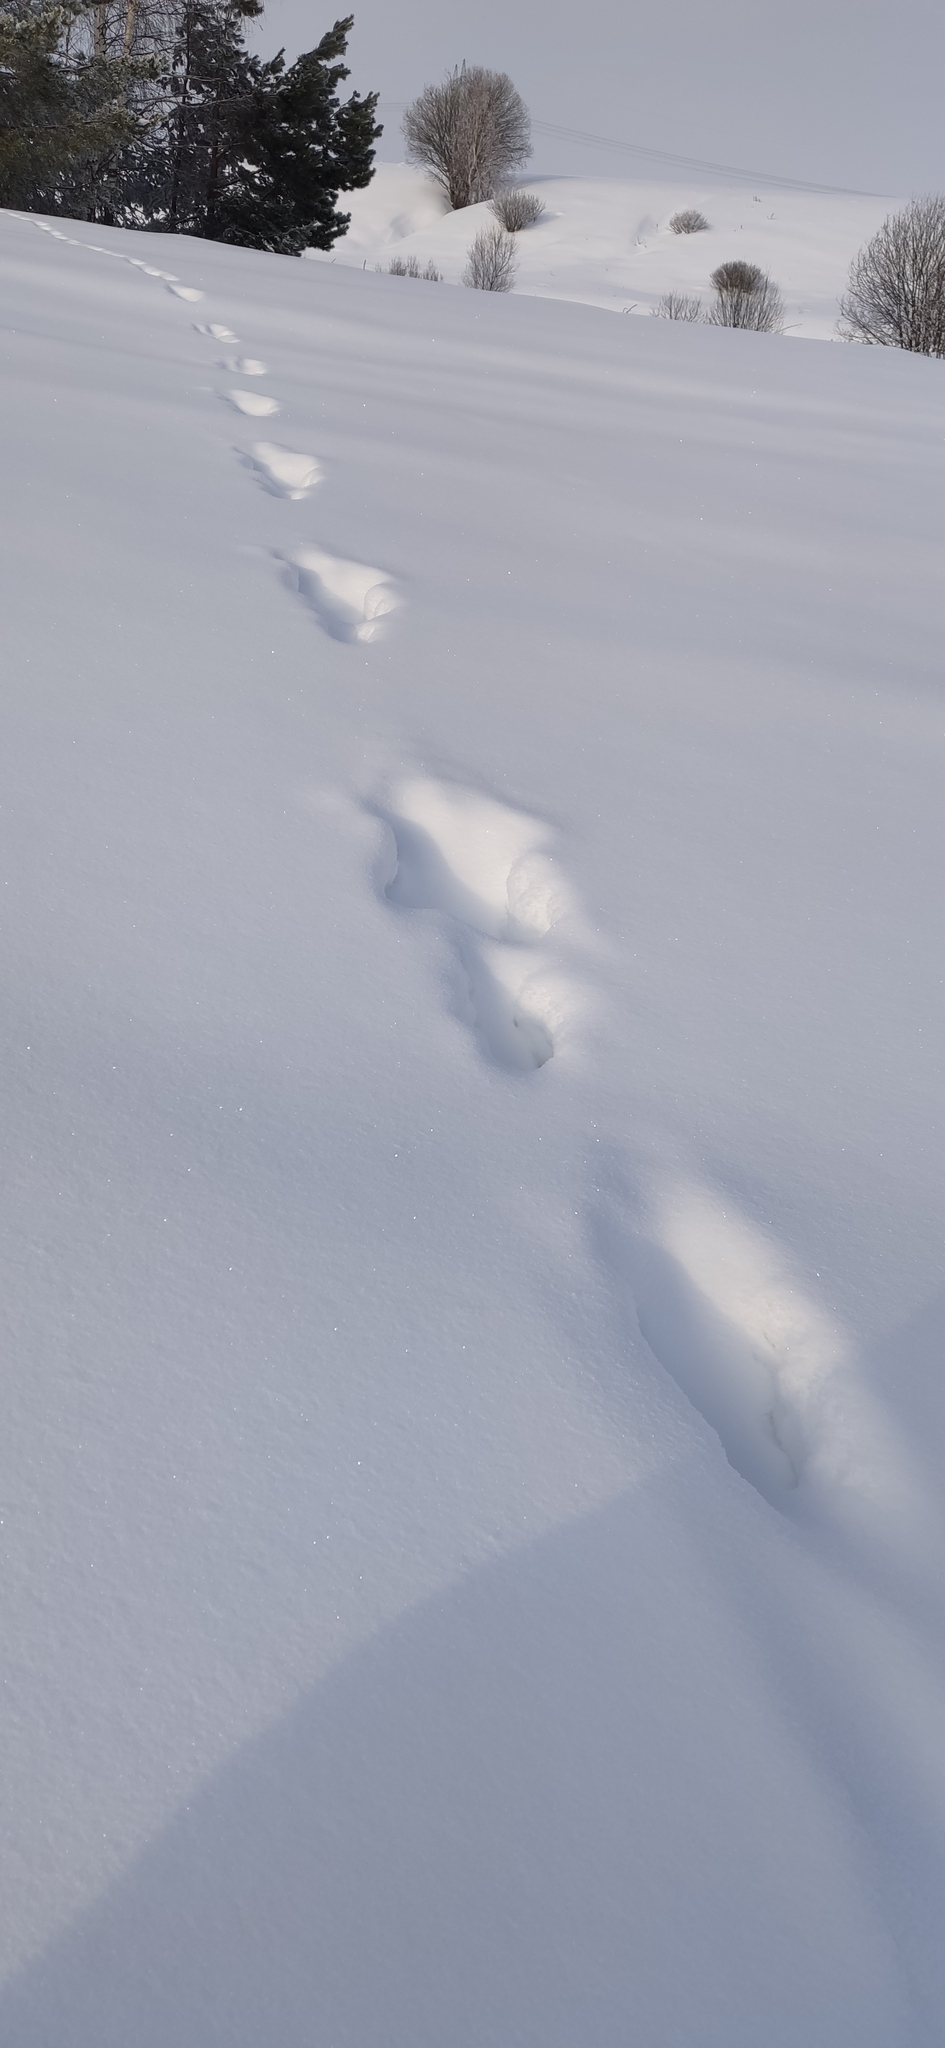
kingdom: Animalia
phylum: Chordata
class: Mammalia
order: Carnivora
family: Canidae
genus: Canis
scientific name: Canis lupus
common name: Gray wolf
